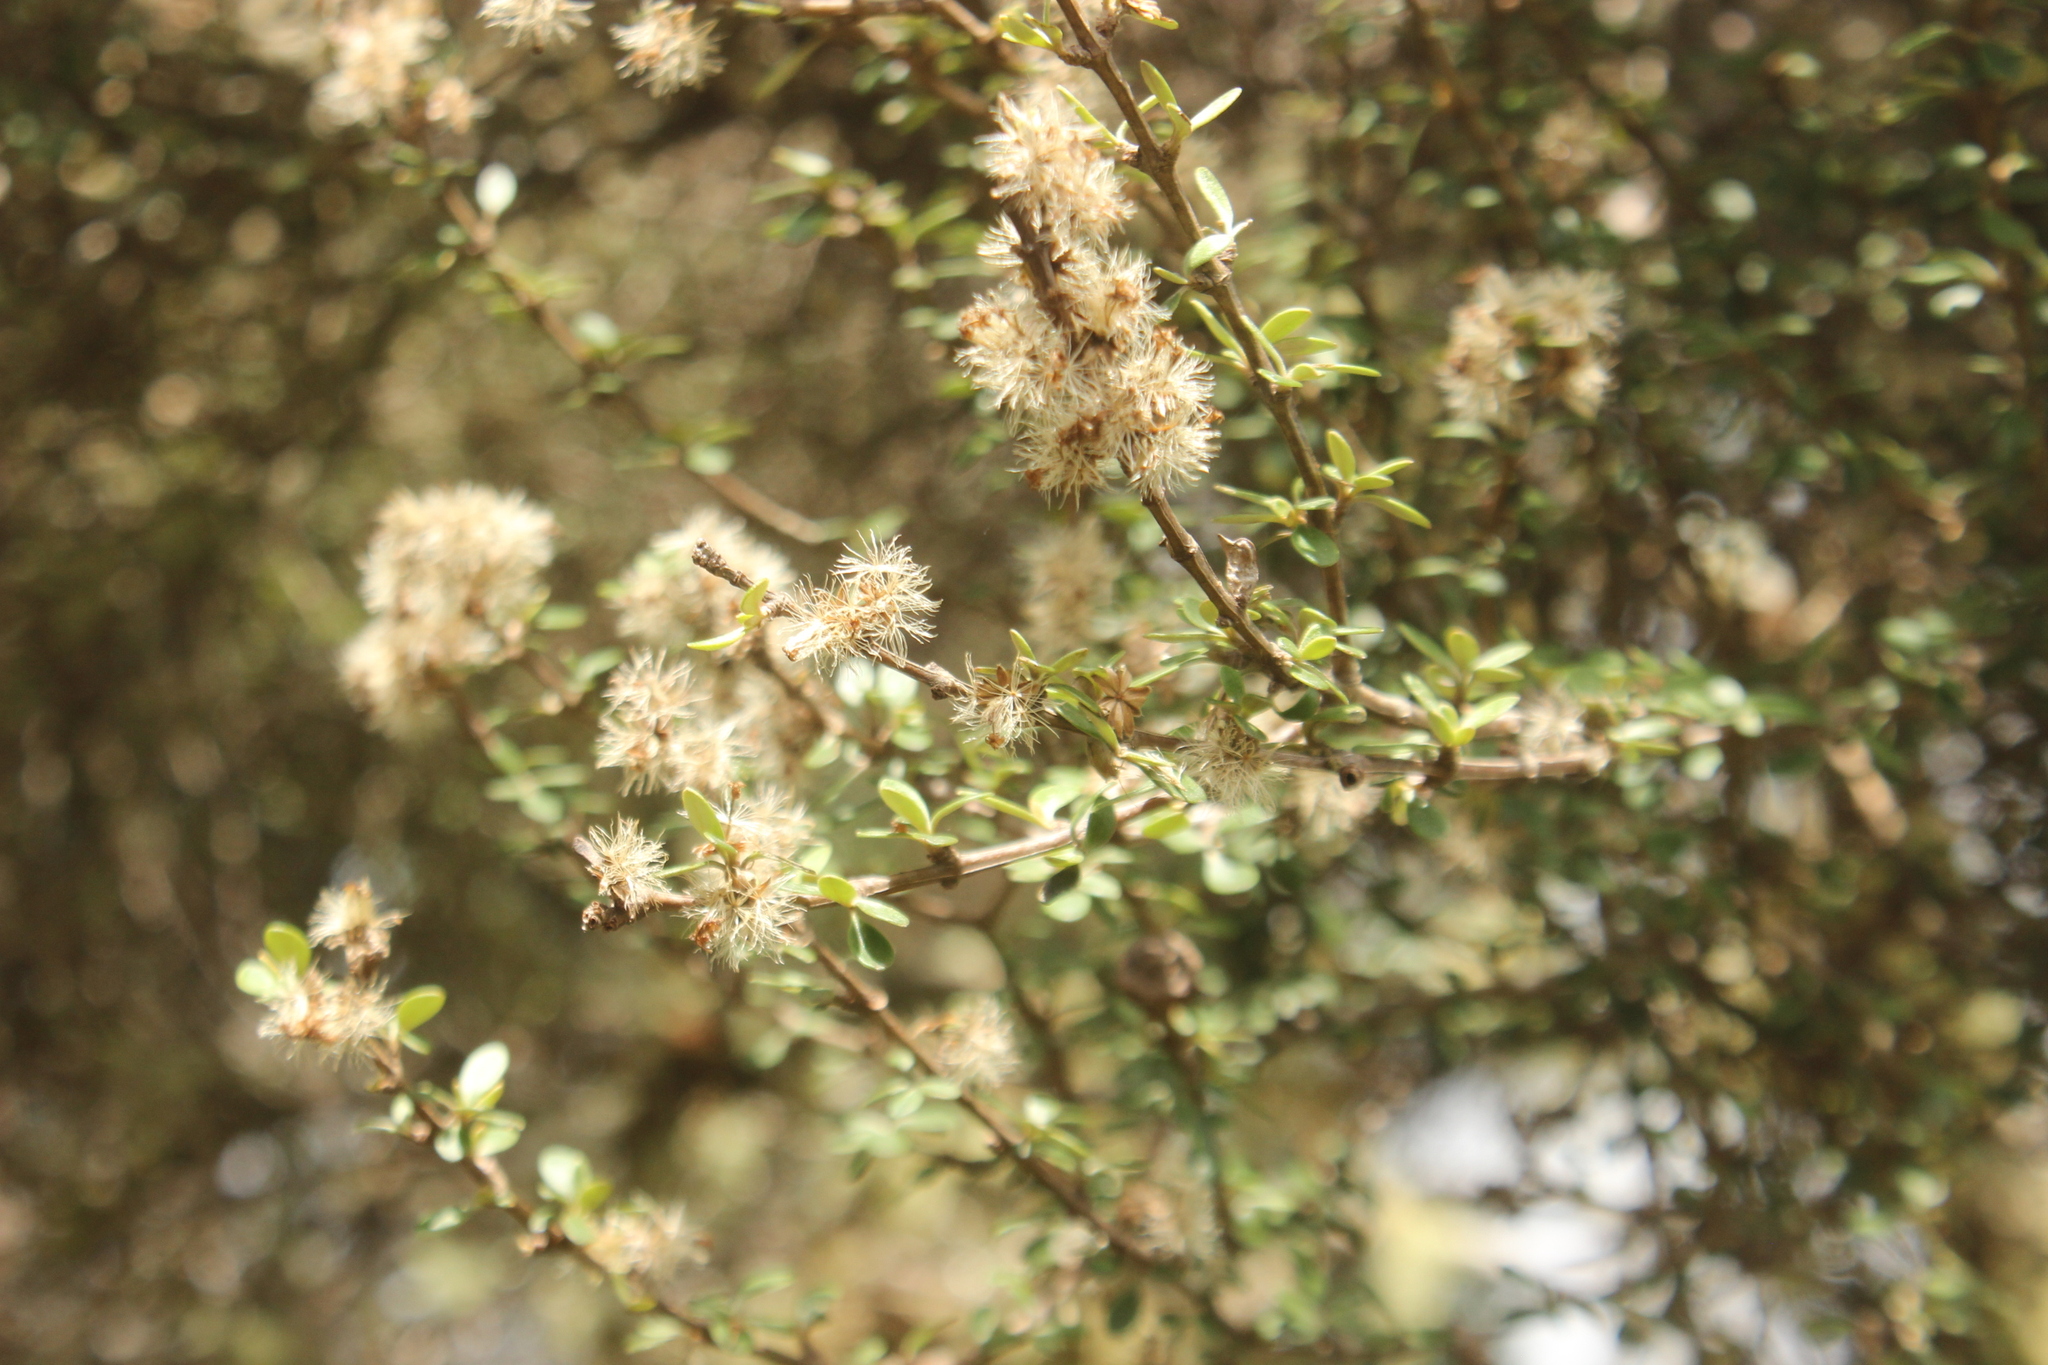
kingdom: Plantae
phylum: Tracheophyta
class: Magnoliopsida
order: Asterales
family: Asteraceae
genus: Olearia
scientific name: Olearia virgata
